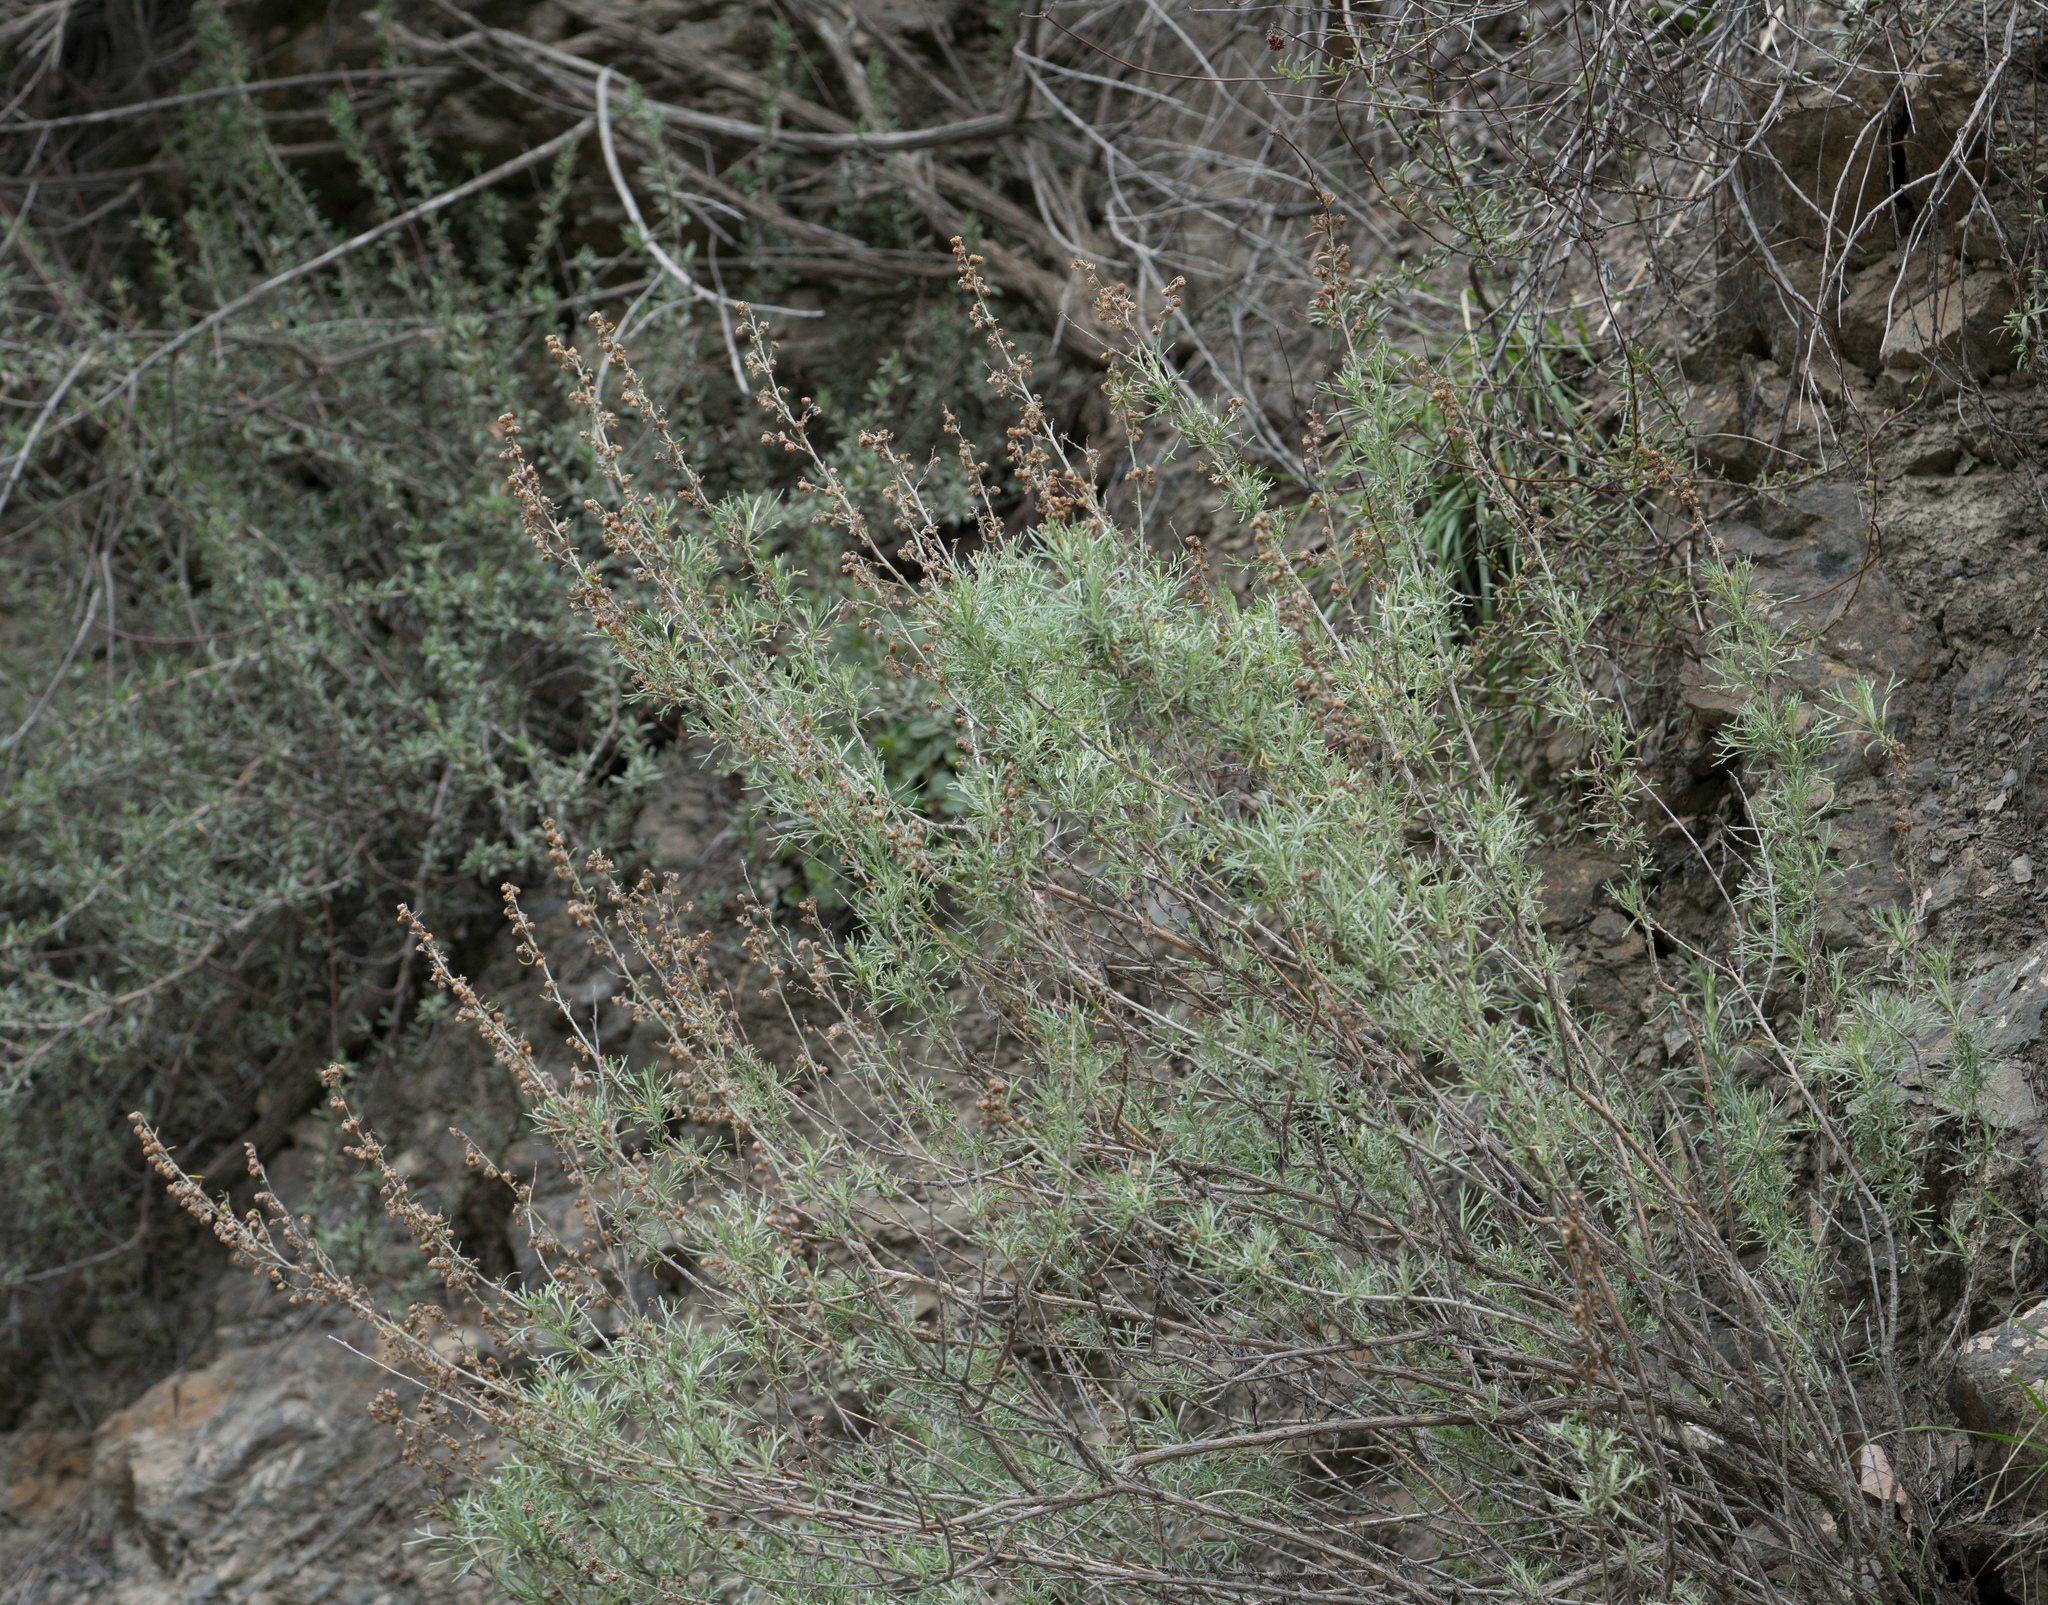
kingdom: Plantae
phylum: Tracheophyta
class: Magnoliopsida
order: Asterales
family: Asteraceae
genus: Artemisia
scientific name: Artemisia californica
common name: California sagebrush
